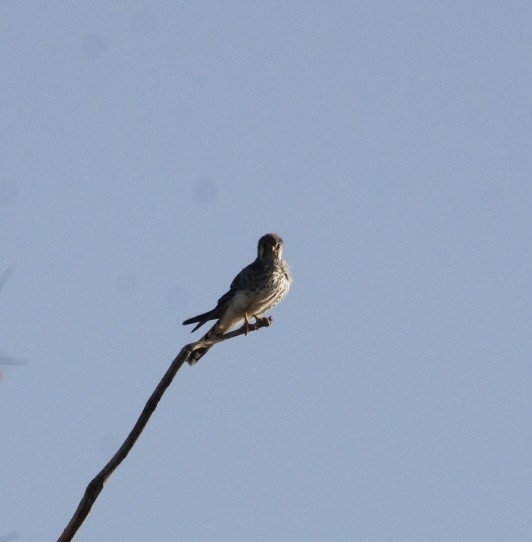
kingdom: Animalia
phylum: Chordata
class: Aves
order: Falconiformes
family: Falconidae
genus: Falco
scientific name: Falco sparverius
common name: American kestrel
